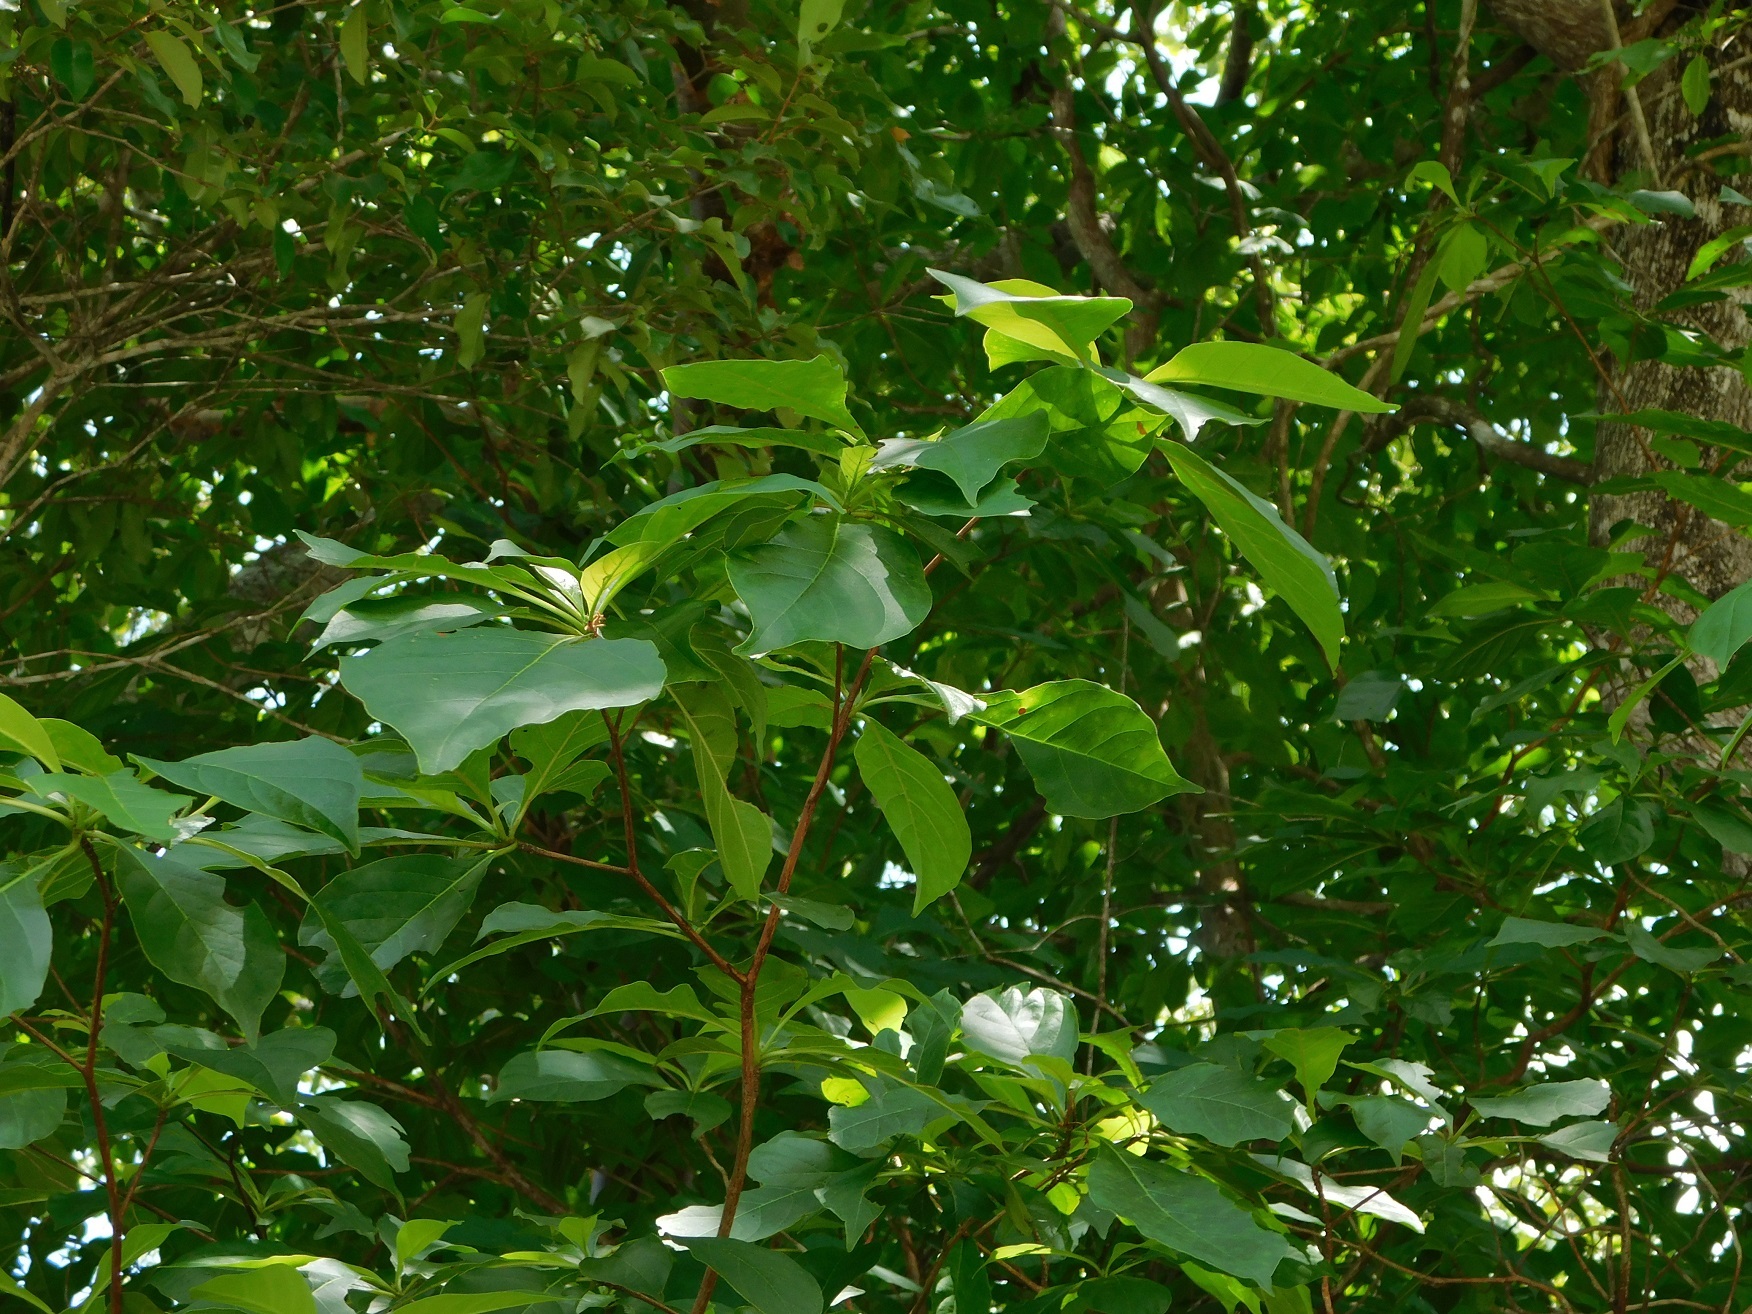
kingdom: Plantae
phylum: Tracheophyta
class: Magnoliopsida
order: Gentianales
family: Rubiaceae
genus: Calycophyllum
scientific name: Calycophyllum candidissimum
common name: Dagame
